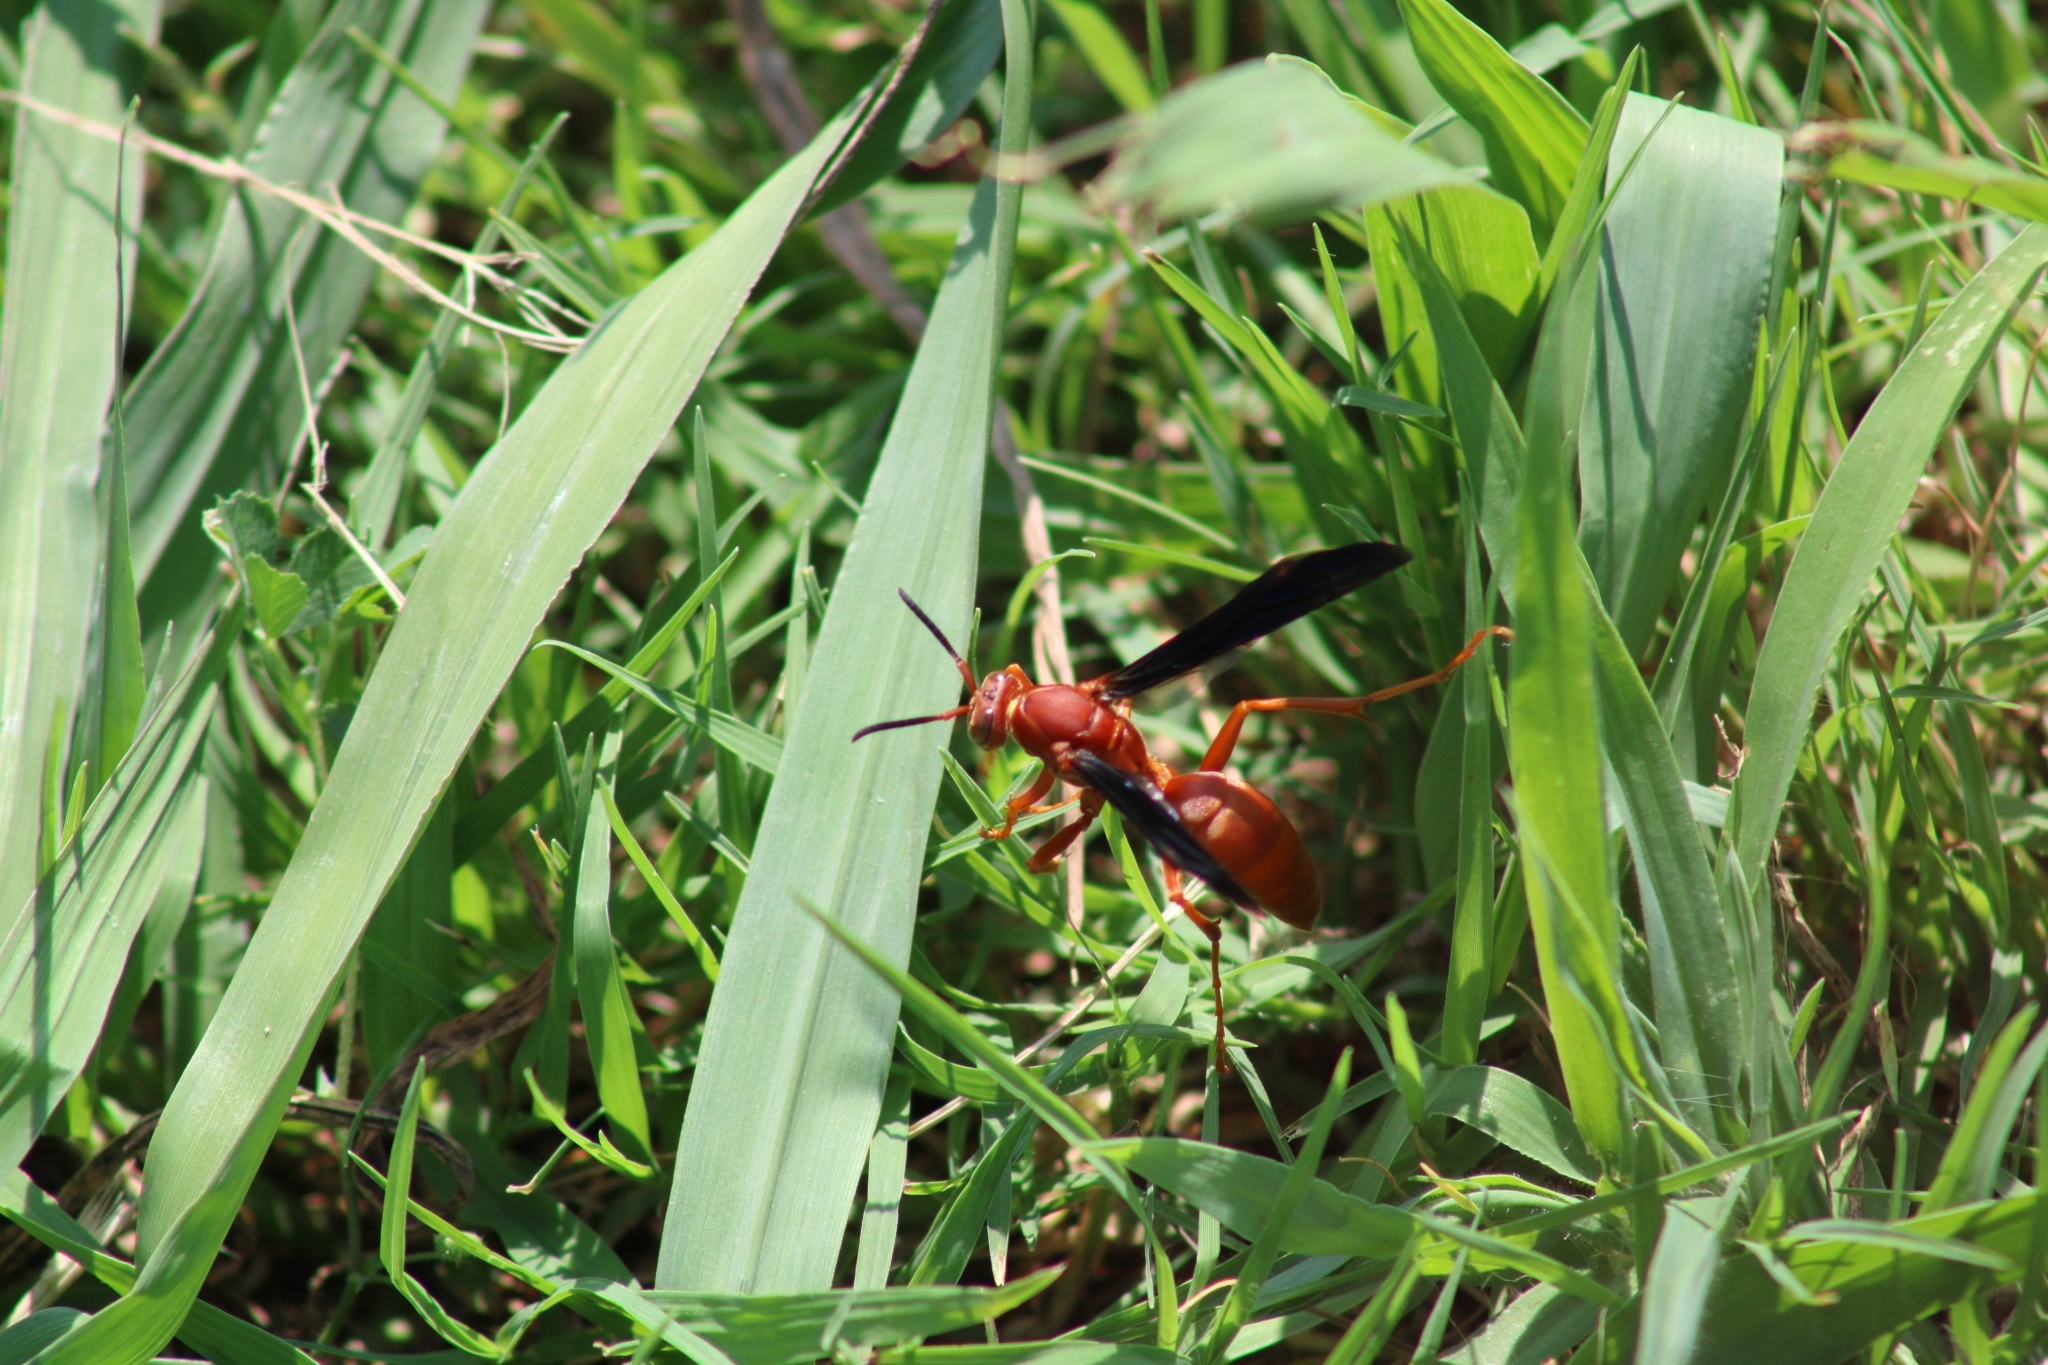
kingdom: Animalia
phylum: Arthropoda
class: Insecta
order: Hymenoptera
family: Vespidae
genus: Fuscopolistes
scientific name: Fuscopolistes
